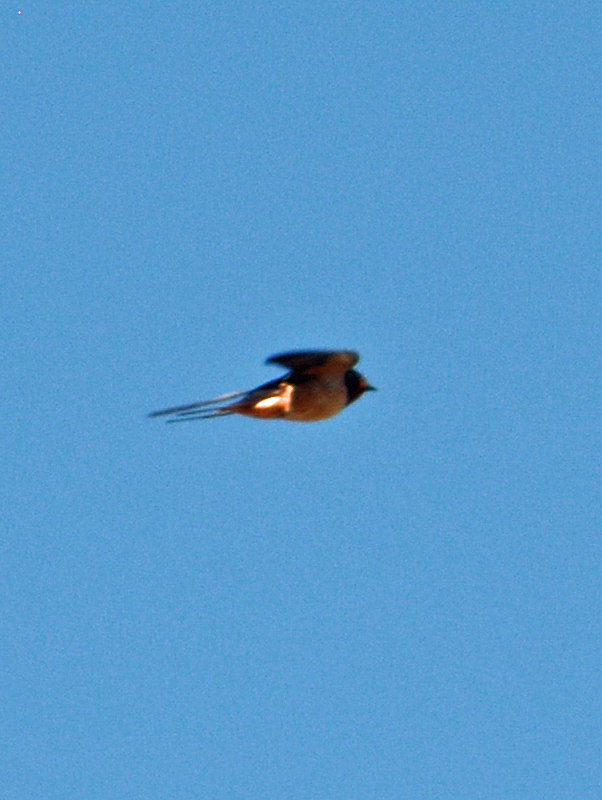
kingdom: Animalia
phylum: Chordata
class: Aves
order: Passeriformes
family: Hirundinidae
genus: Hirundo
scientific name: Hirundo rustica
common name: Barn swallow
